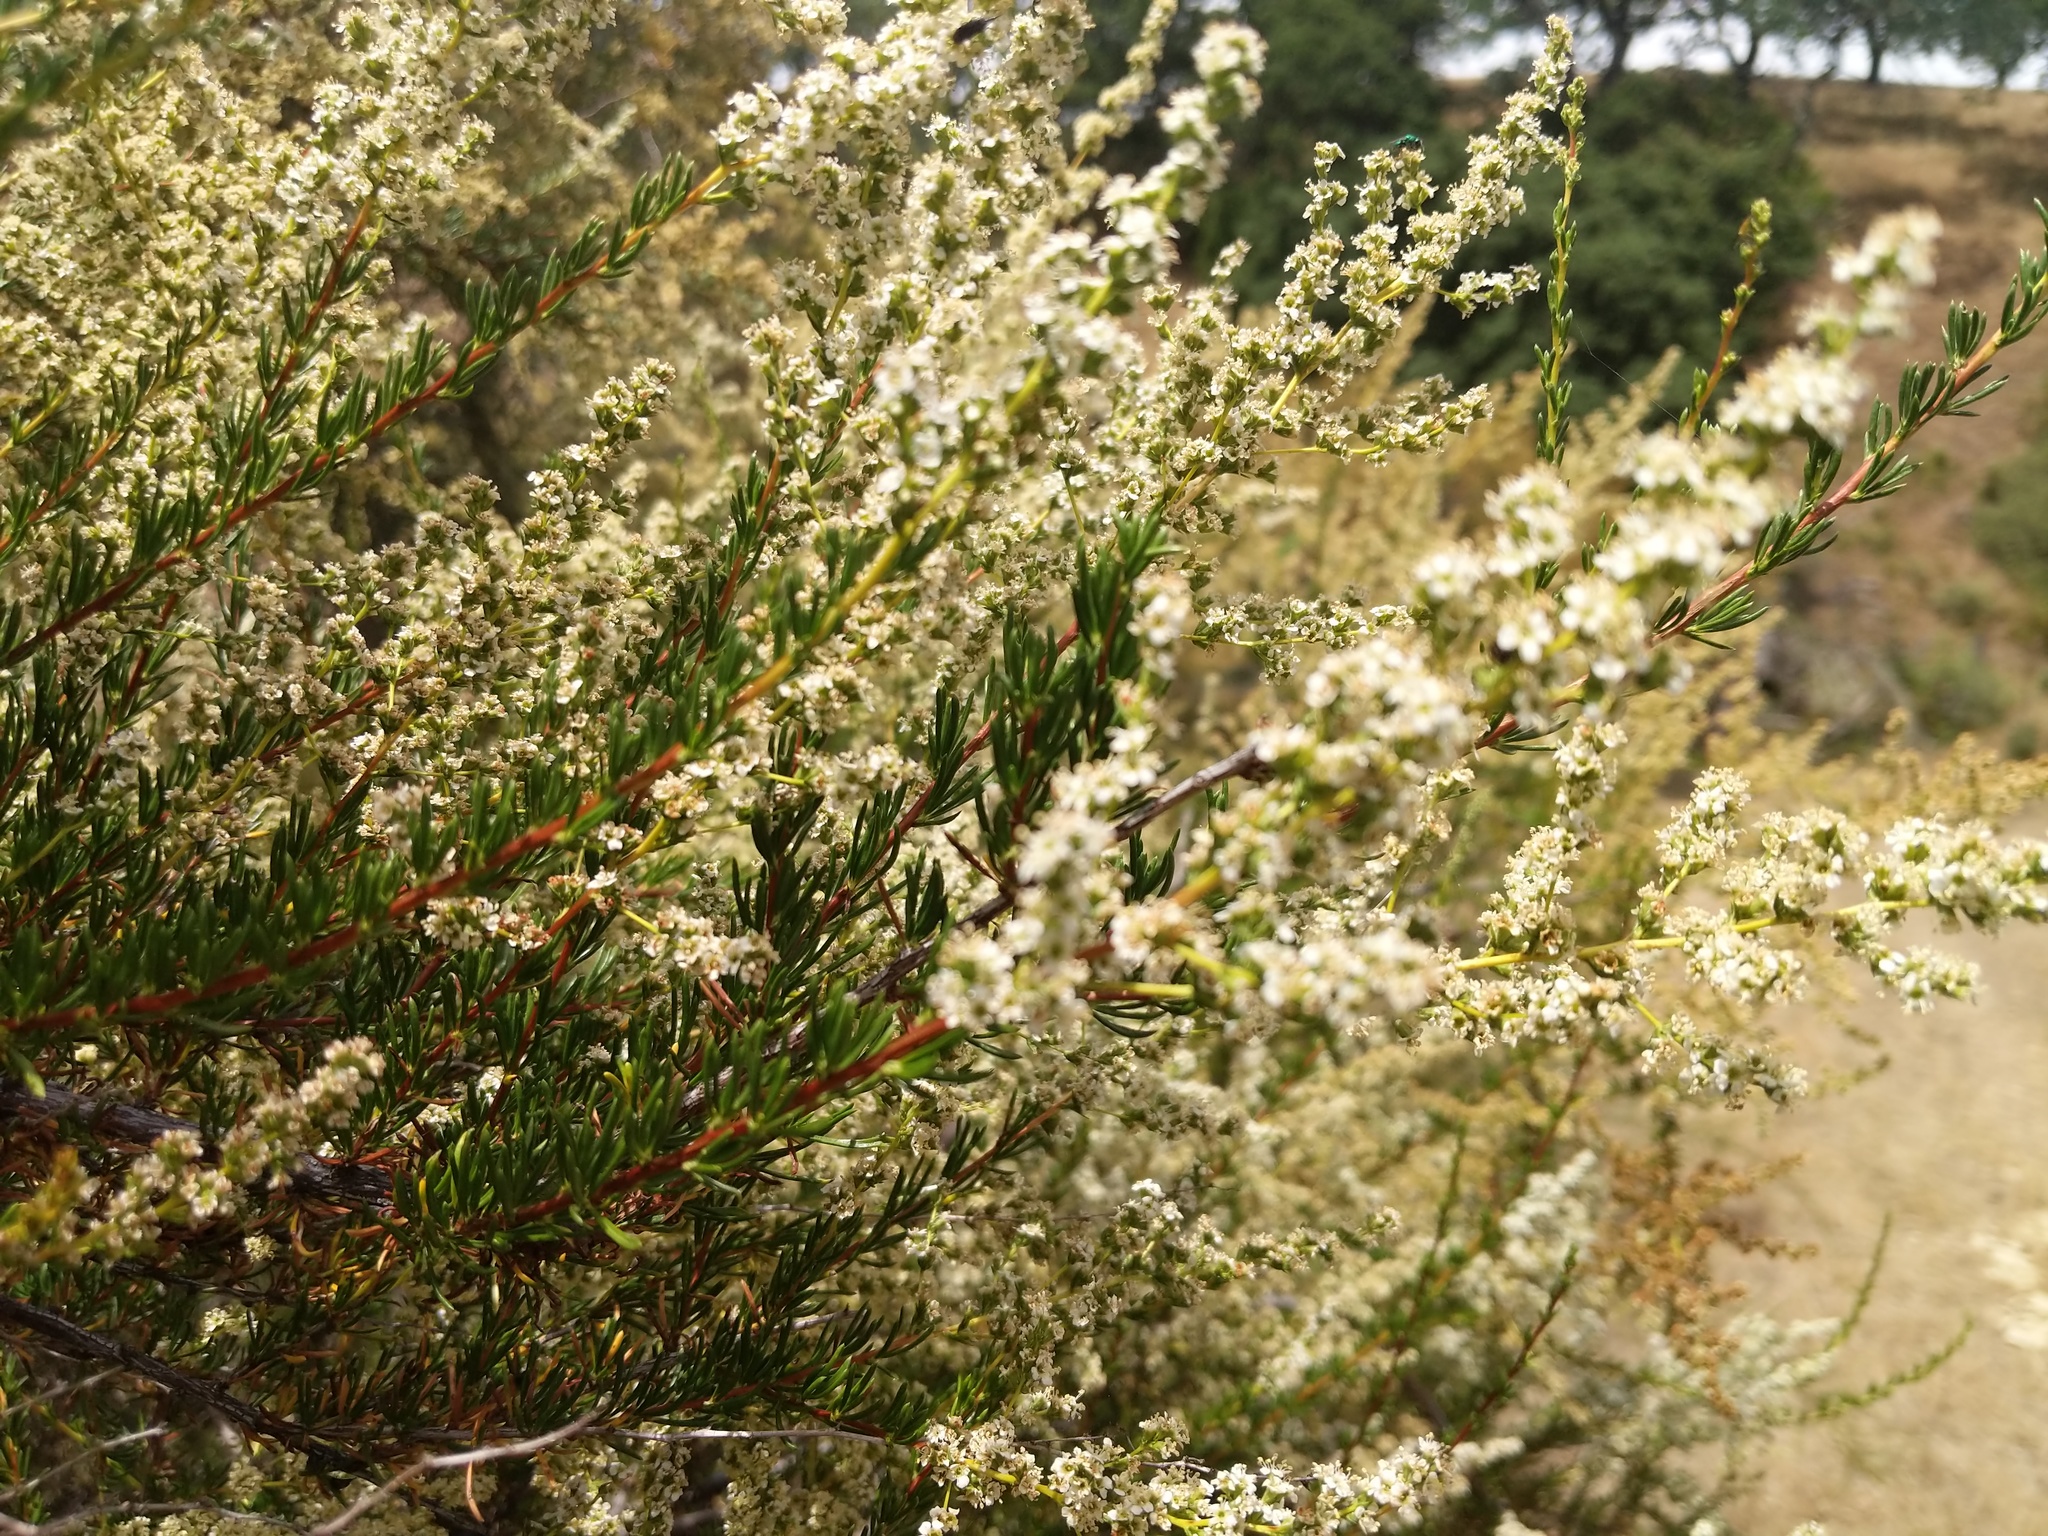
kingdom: Plantae
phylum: Tracheophyta
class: Magnoliopsida
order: Rosales
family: Rosaceae
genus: Adenostoma
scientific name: Adenostoma fasciculatum
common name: Chamise
